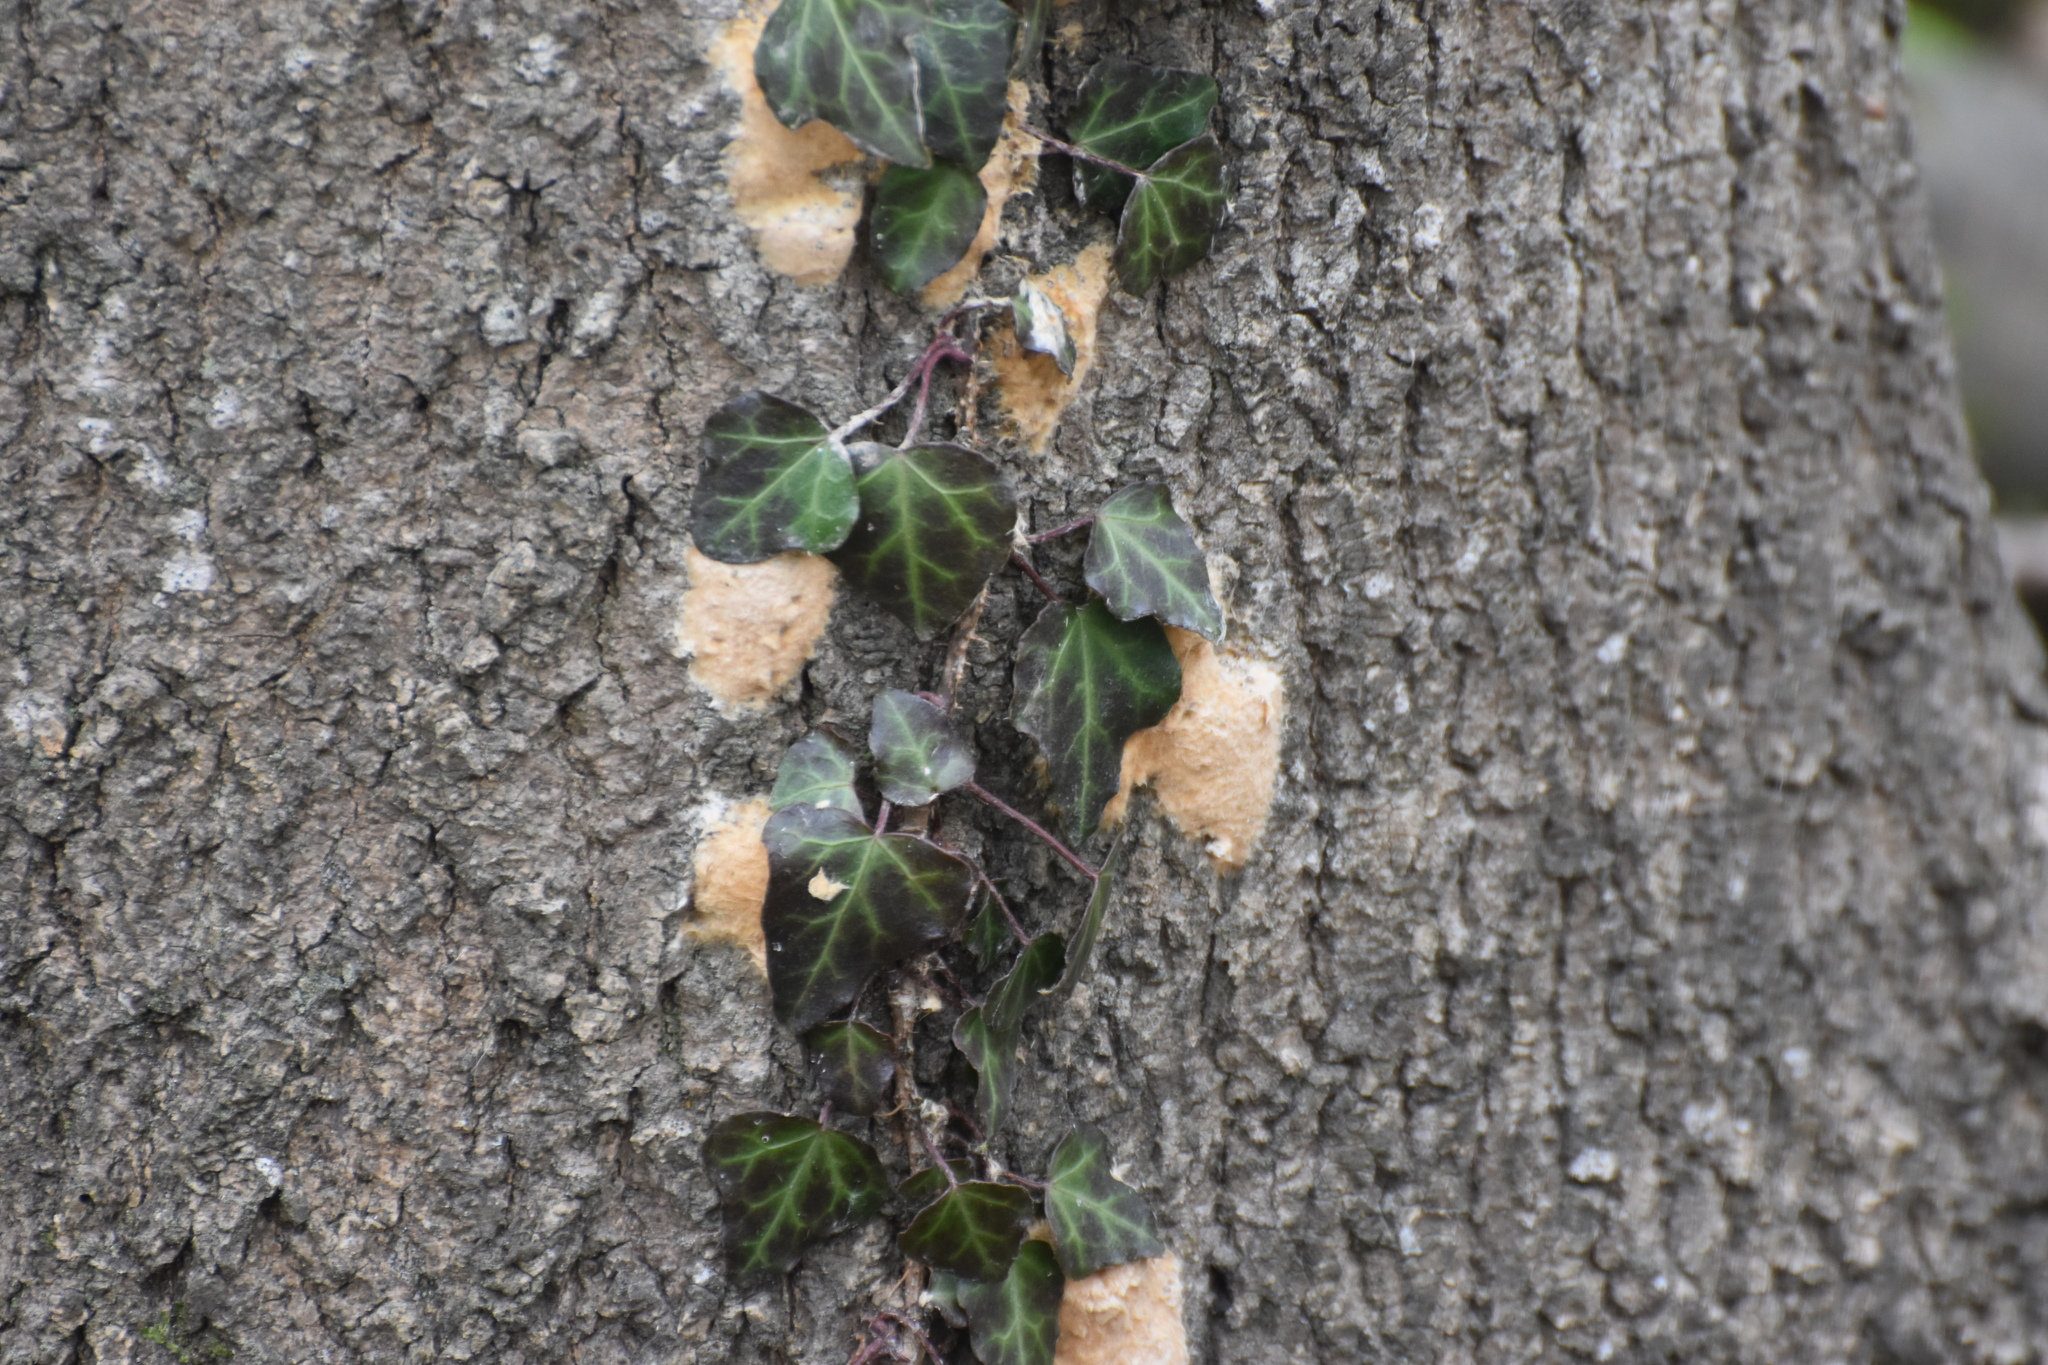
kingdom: Plantae
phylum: Tracheophyta
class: Magnoliopsida
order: Apiales
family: Araliaceae
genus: Hedera
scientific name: Hedera pastuchovii
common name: Persian ivy
